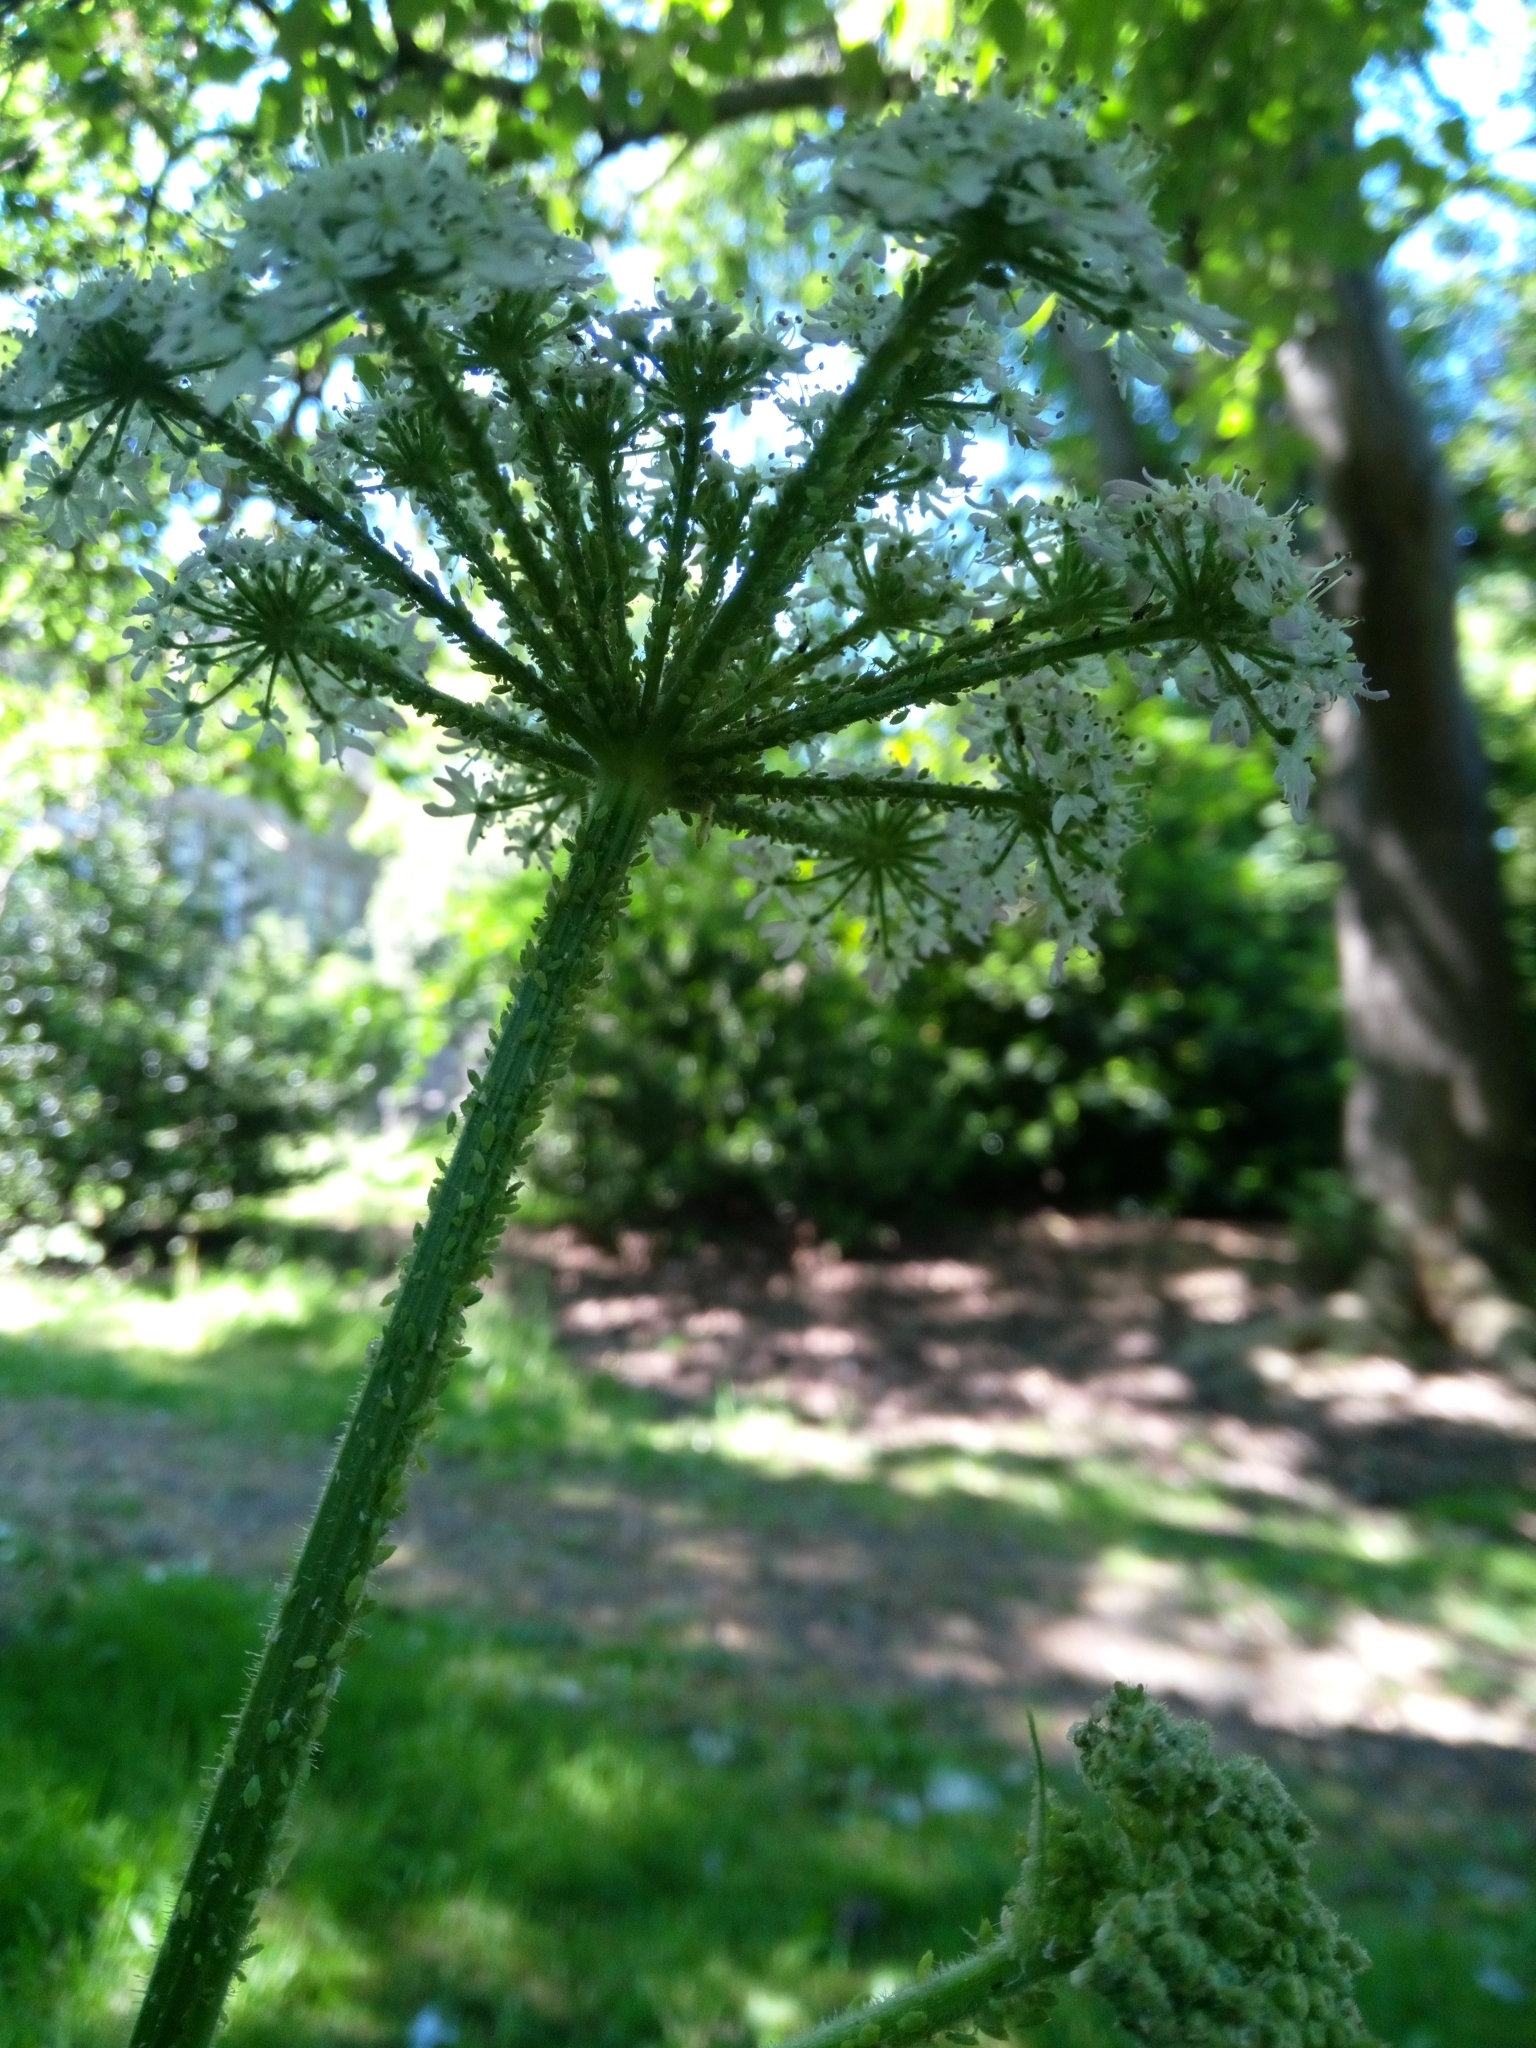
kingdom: Plantae
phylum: Tracheophyta
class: Magnoliopsida
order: Apiales
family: Apiaceae
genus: Heracleum
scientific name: Heracleum sphondylium
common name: Hogweed
